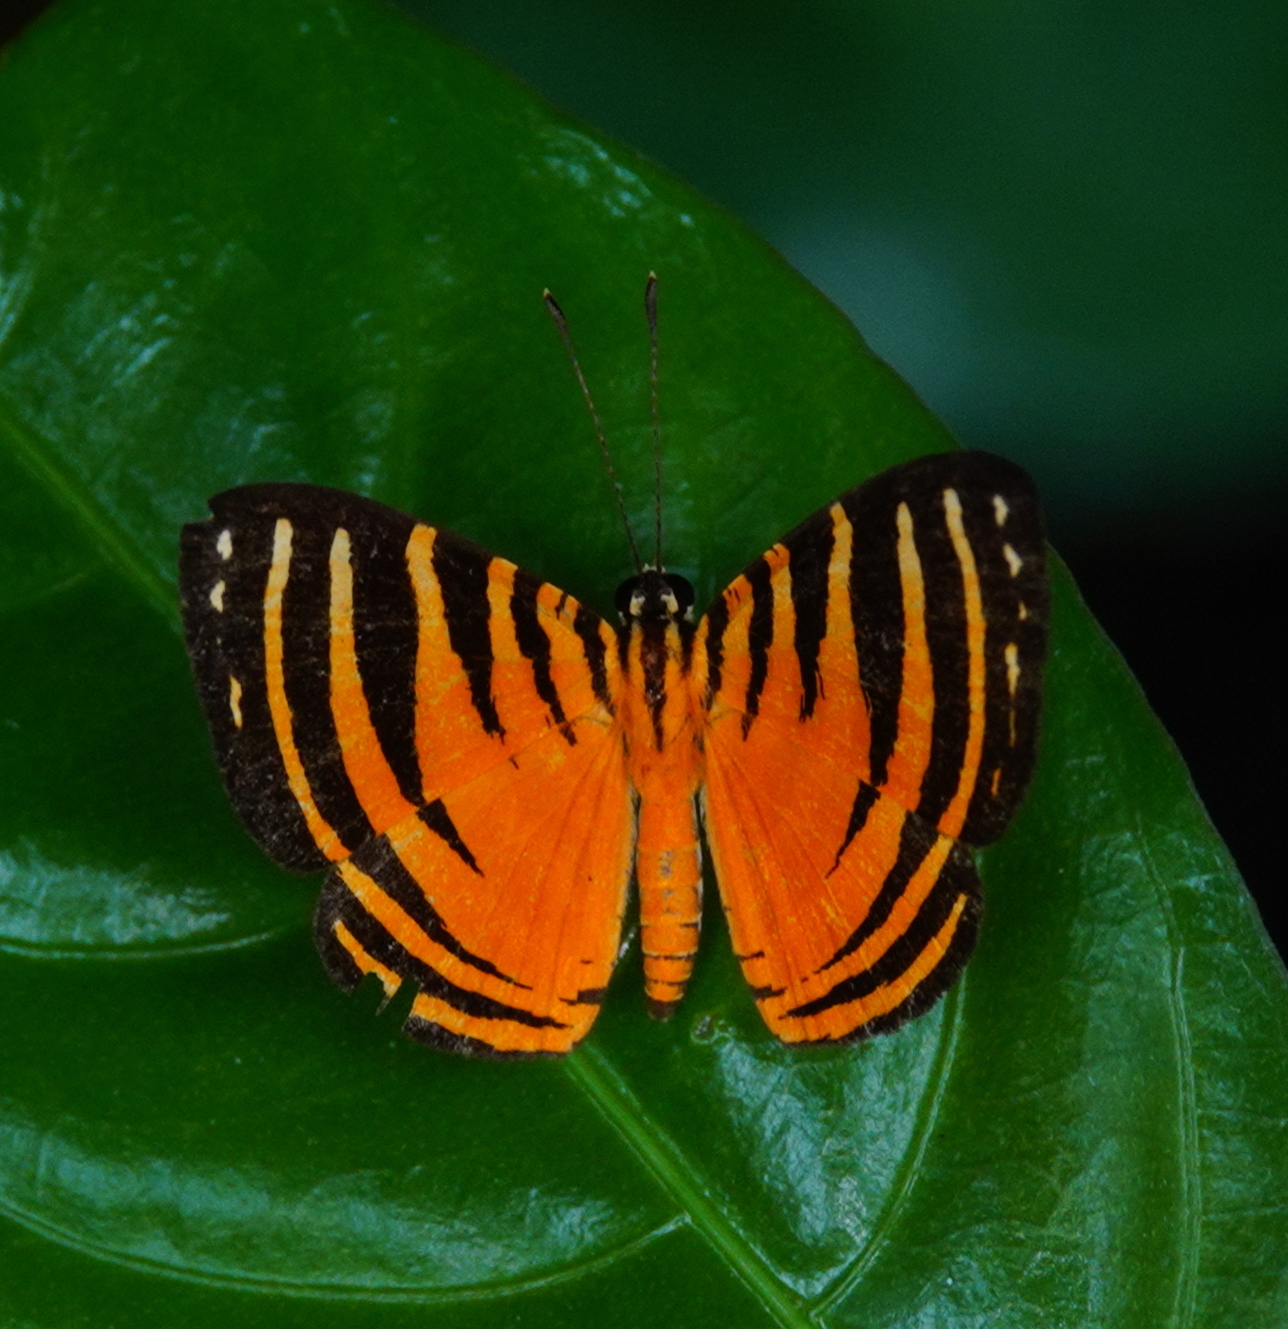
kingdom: Animalia
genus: Hyphilaria
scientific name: Hyphilaria parthenis
